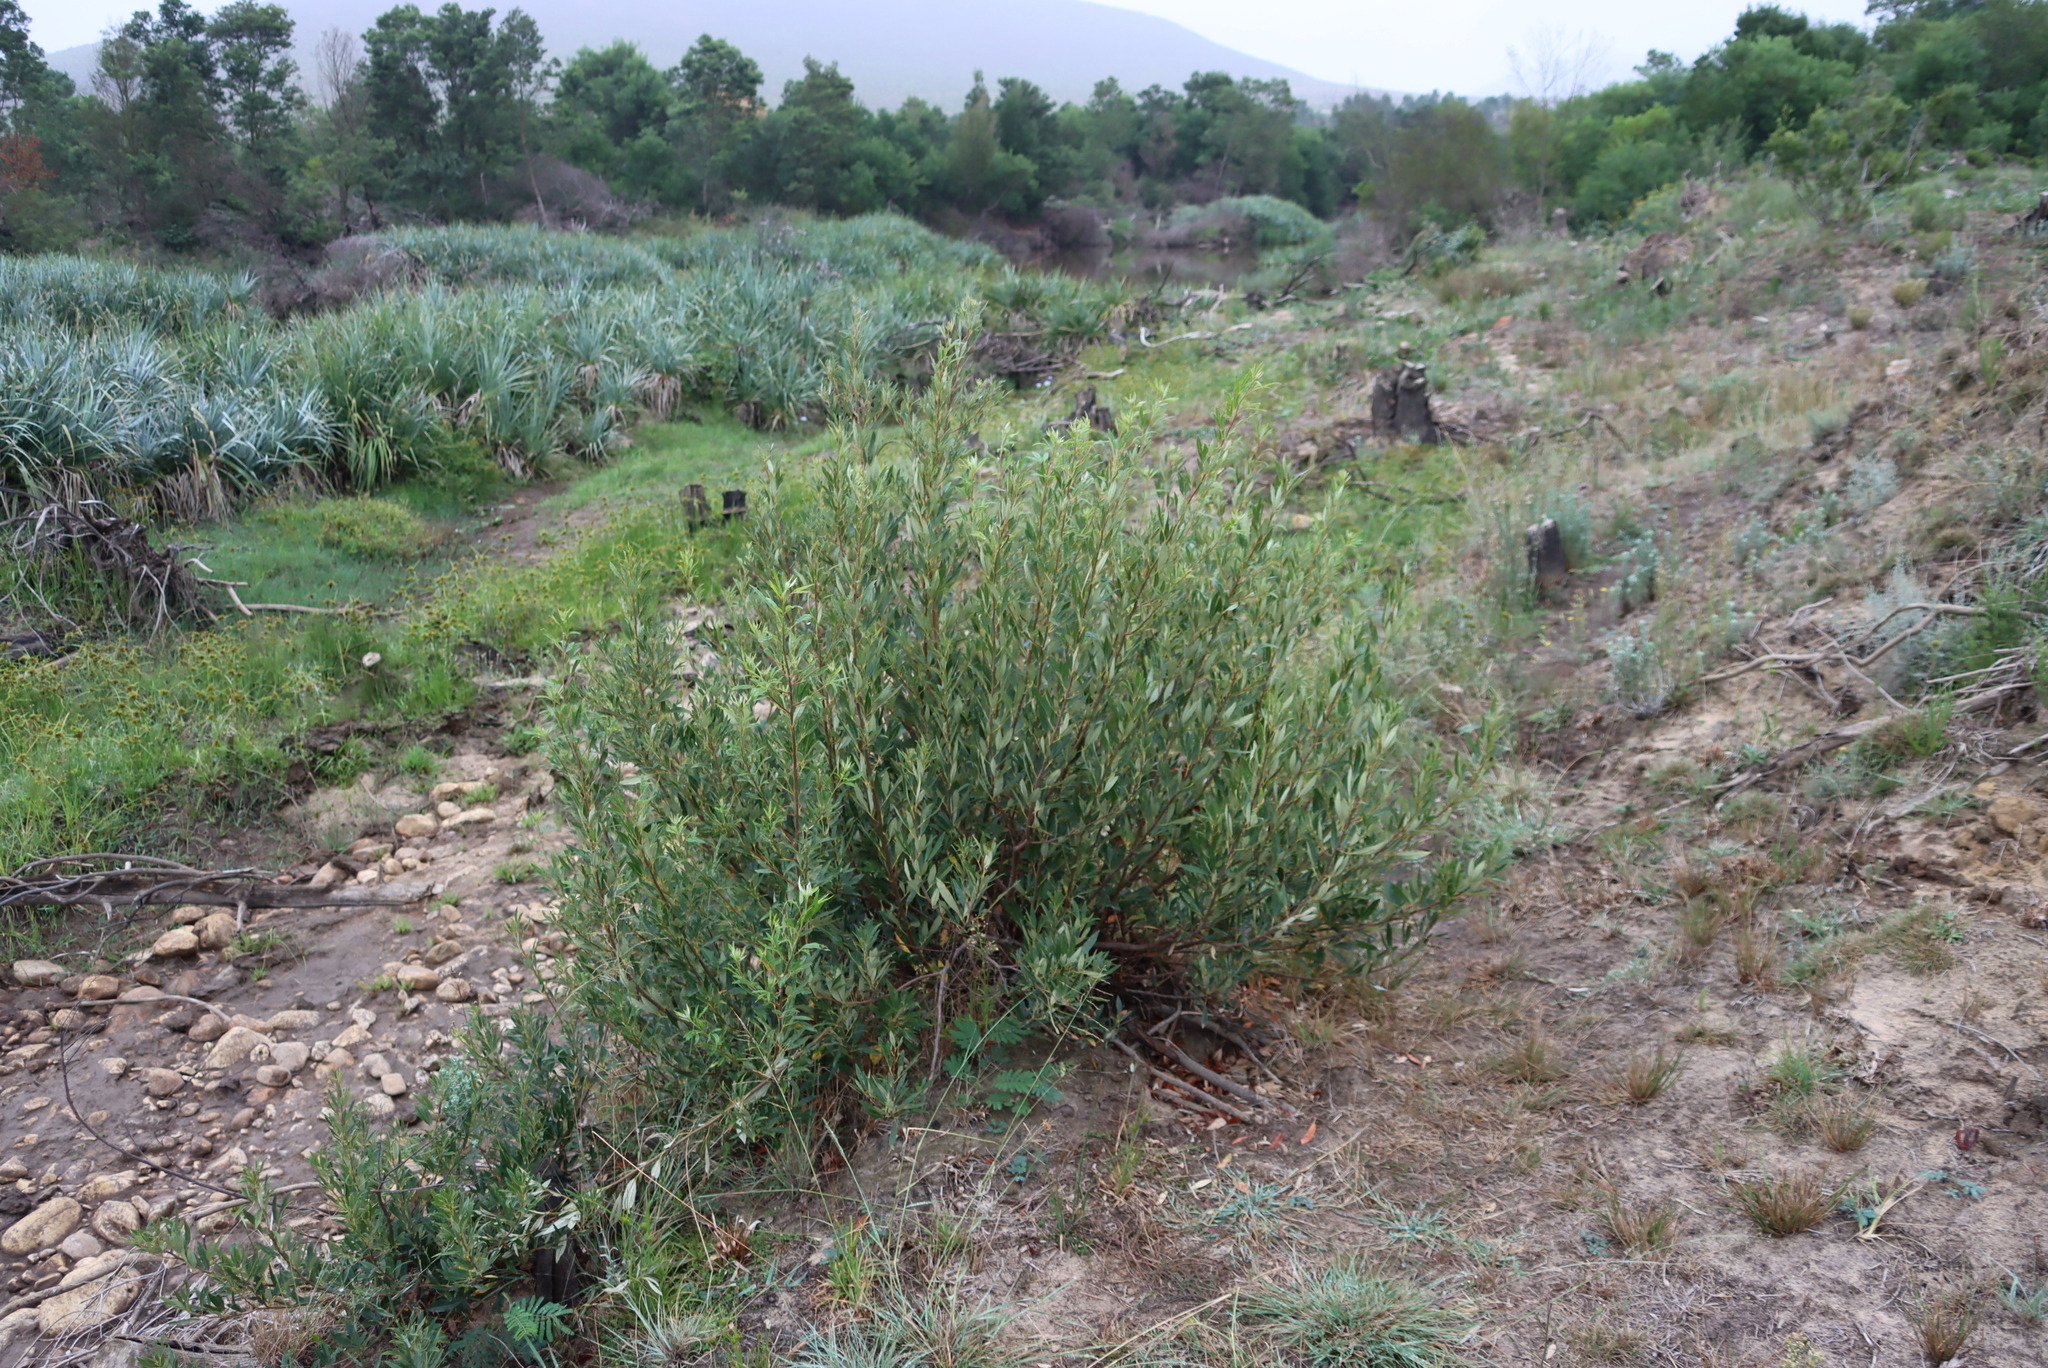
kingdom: Plantae
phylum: Tracheophyta
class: Magnoliopsida
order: Sapindales
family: Anacardiaceae
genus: Searsia
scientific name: Searsia angustifolia
